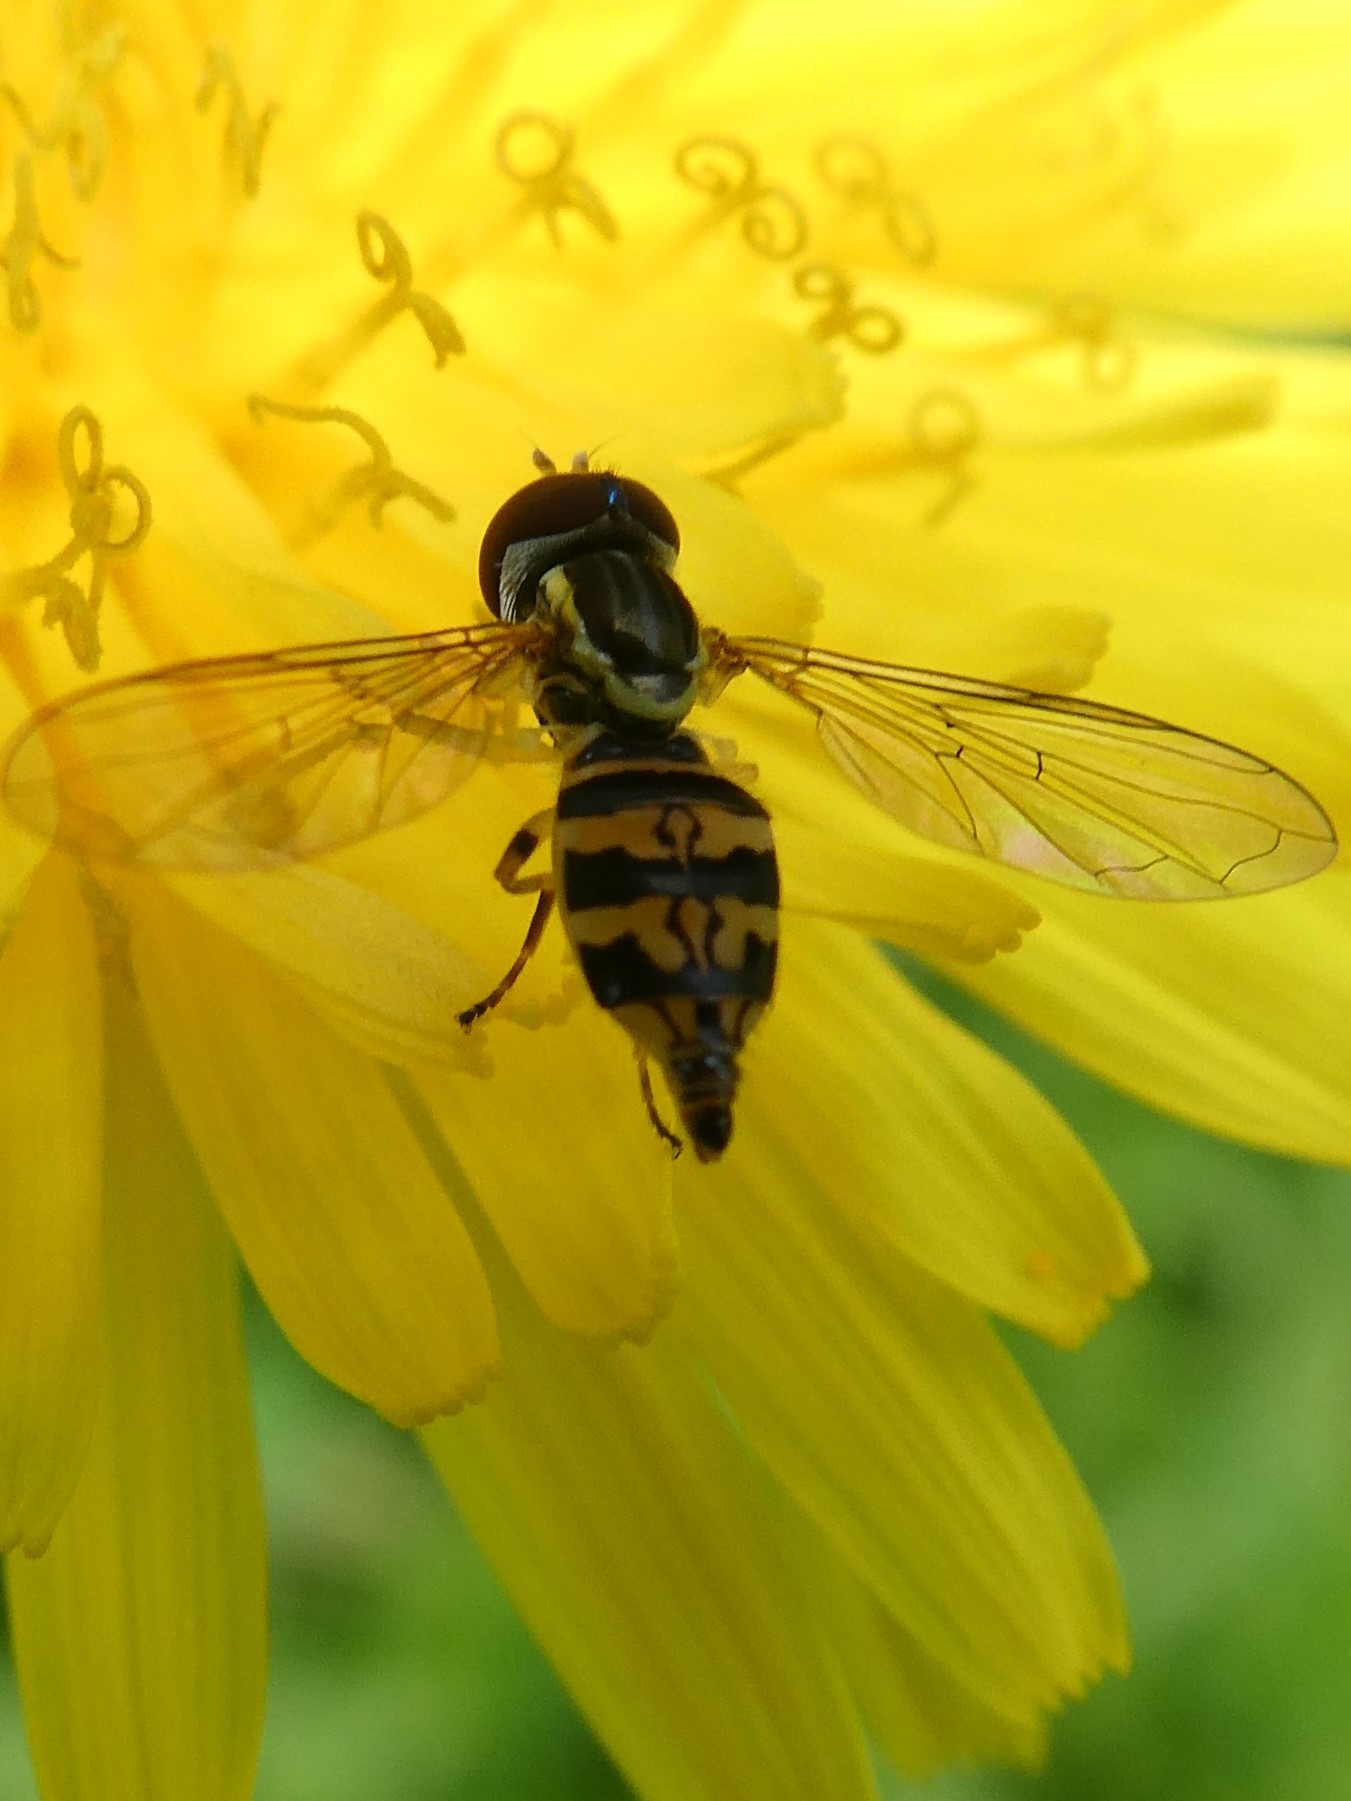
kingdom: Animalia
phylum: Arthropoda
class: Insecta
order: Diptera
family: Syrphidae
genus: Toxomerus
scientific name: Toxomerus geminatus
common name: Eastern calligrapher
